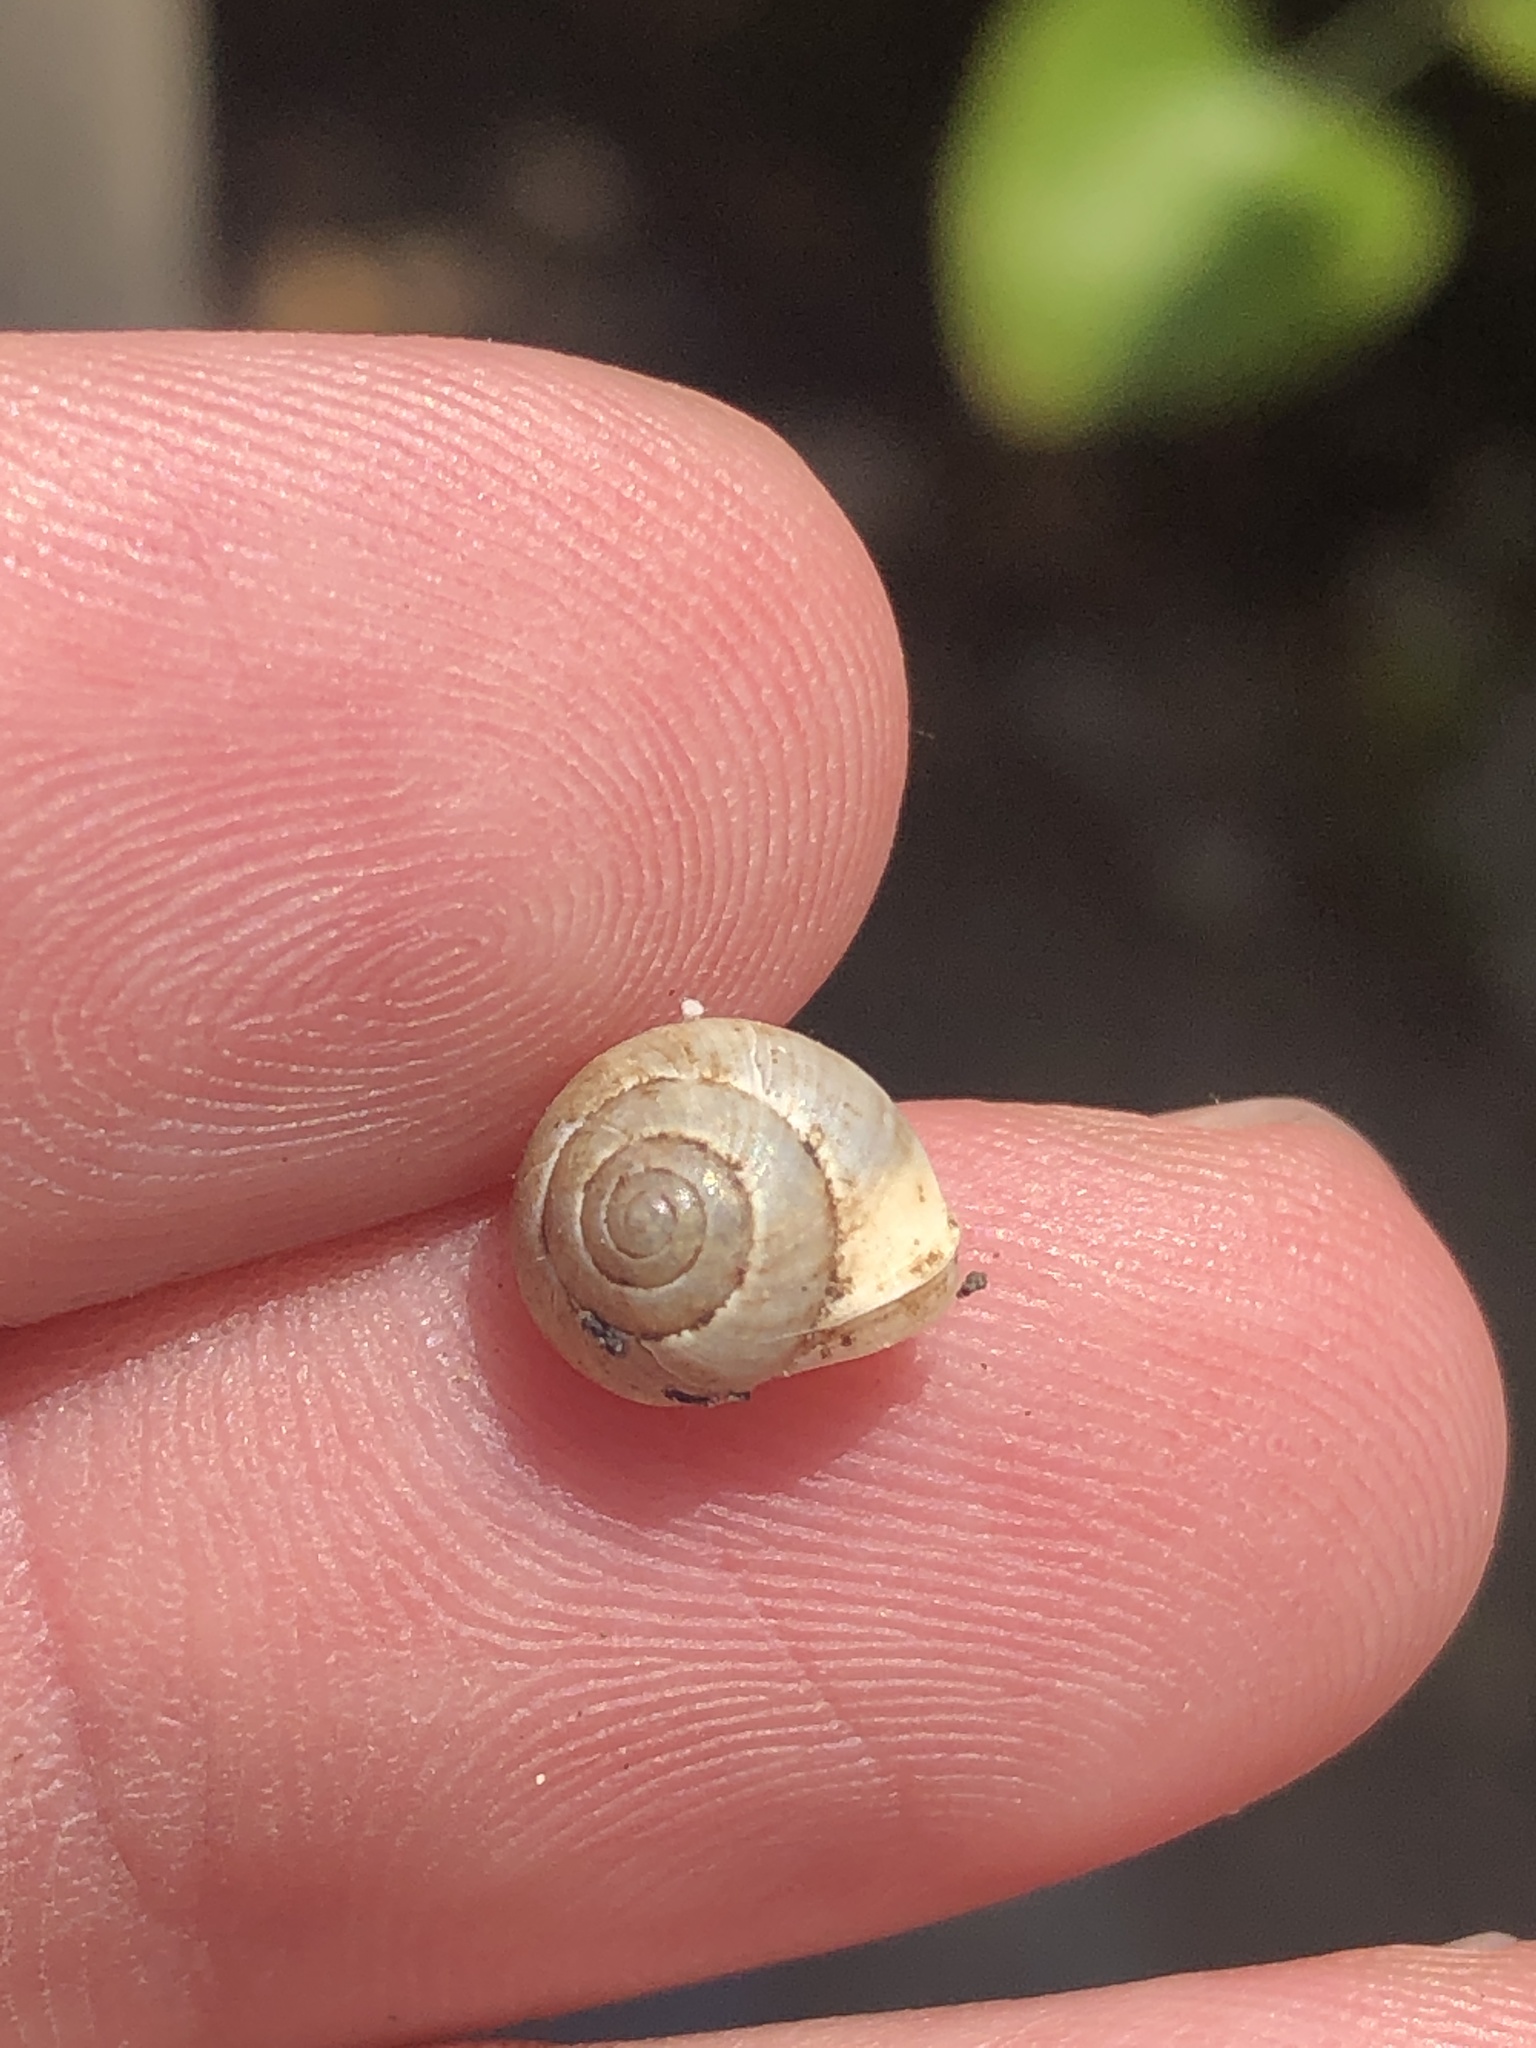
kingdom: Animalia
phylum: Mollusca
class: Gastropoda
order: Cycloneritida
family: Helicinidae
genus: Helicina
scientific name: Helicina orbiculata
